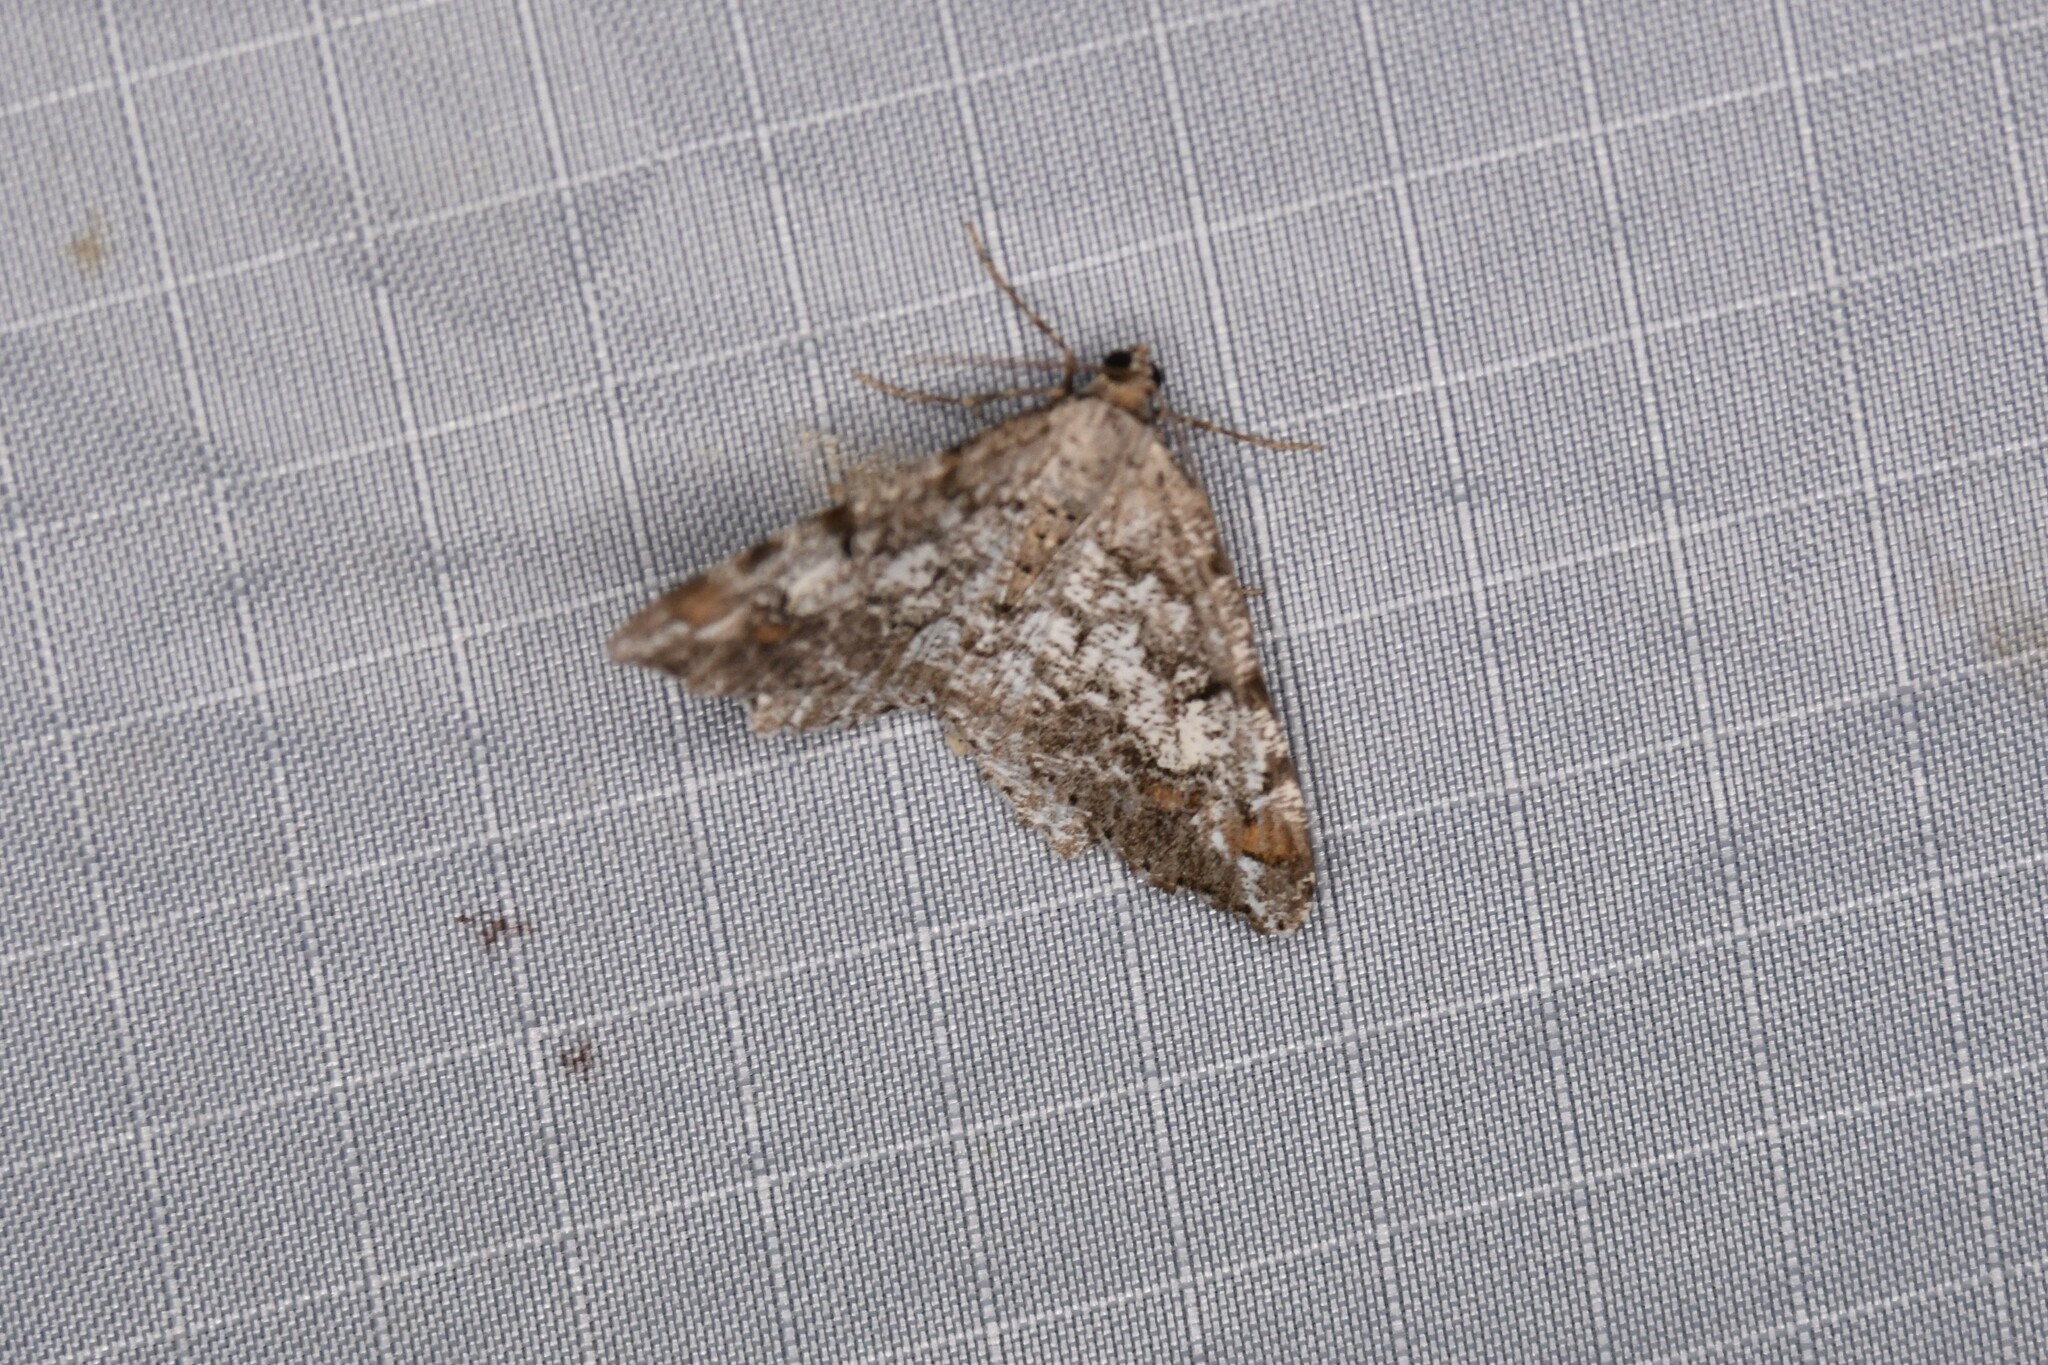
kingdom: Animalia
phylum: Arthropoda
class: Insecta
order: Lepidoptera
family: Geometridae
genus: Macaria
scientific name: Macaria granitata
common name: Granite moth
